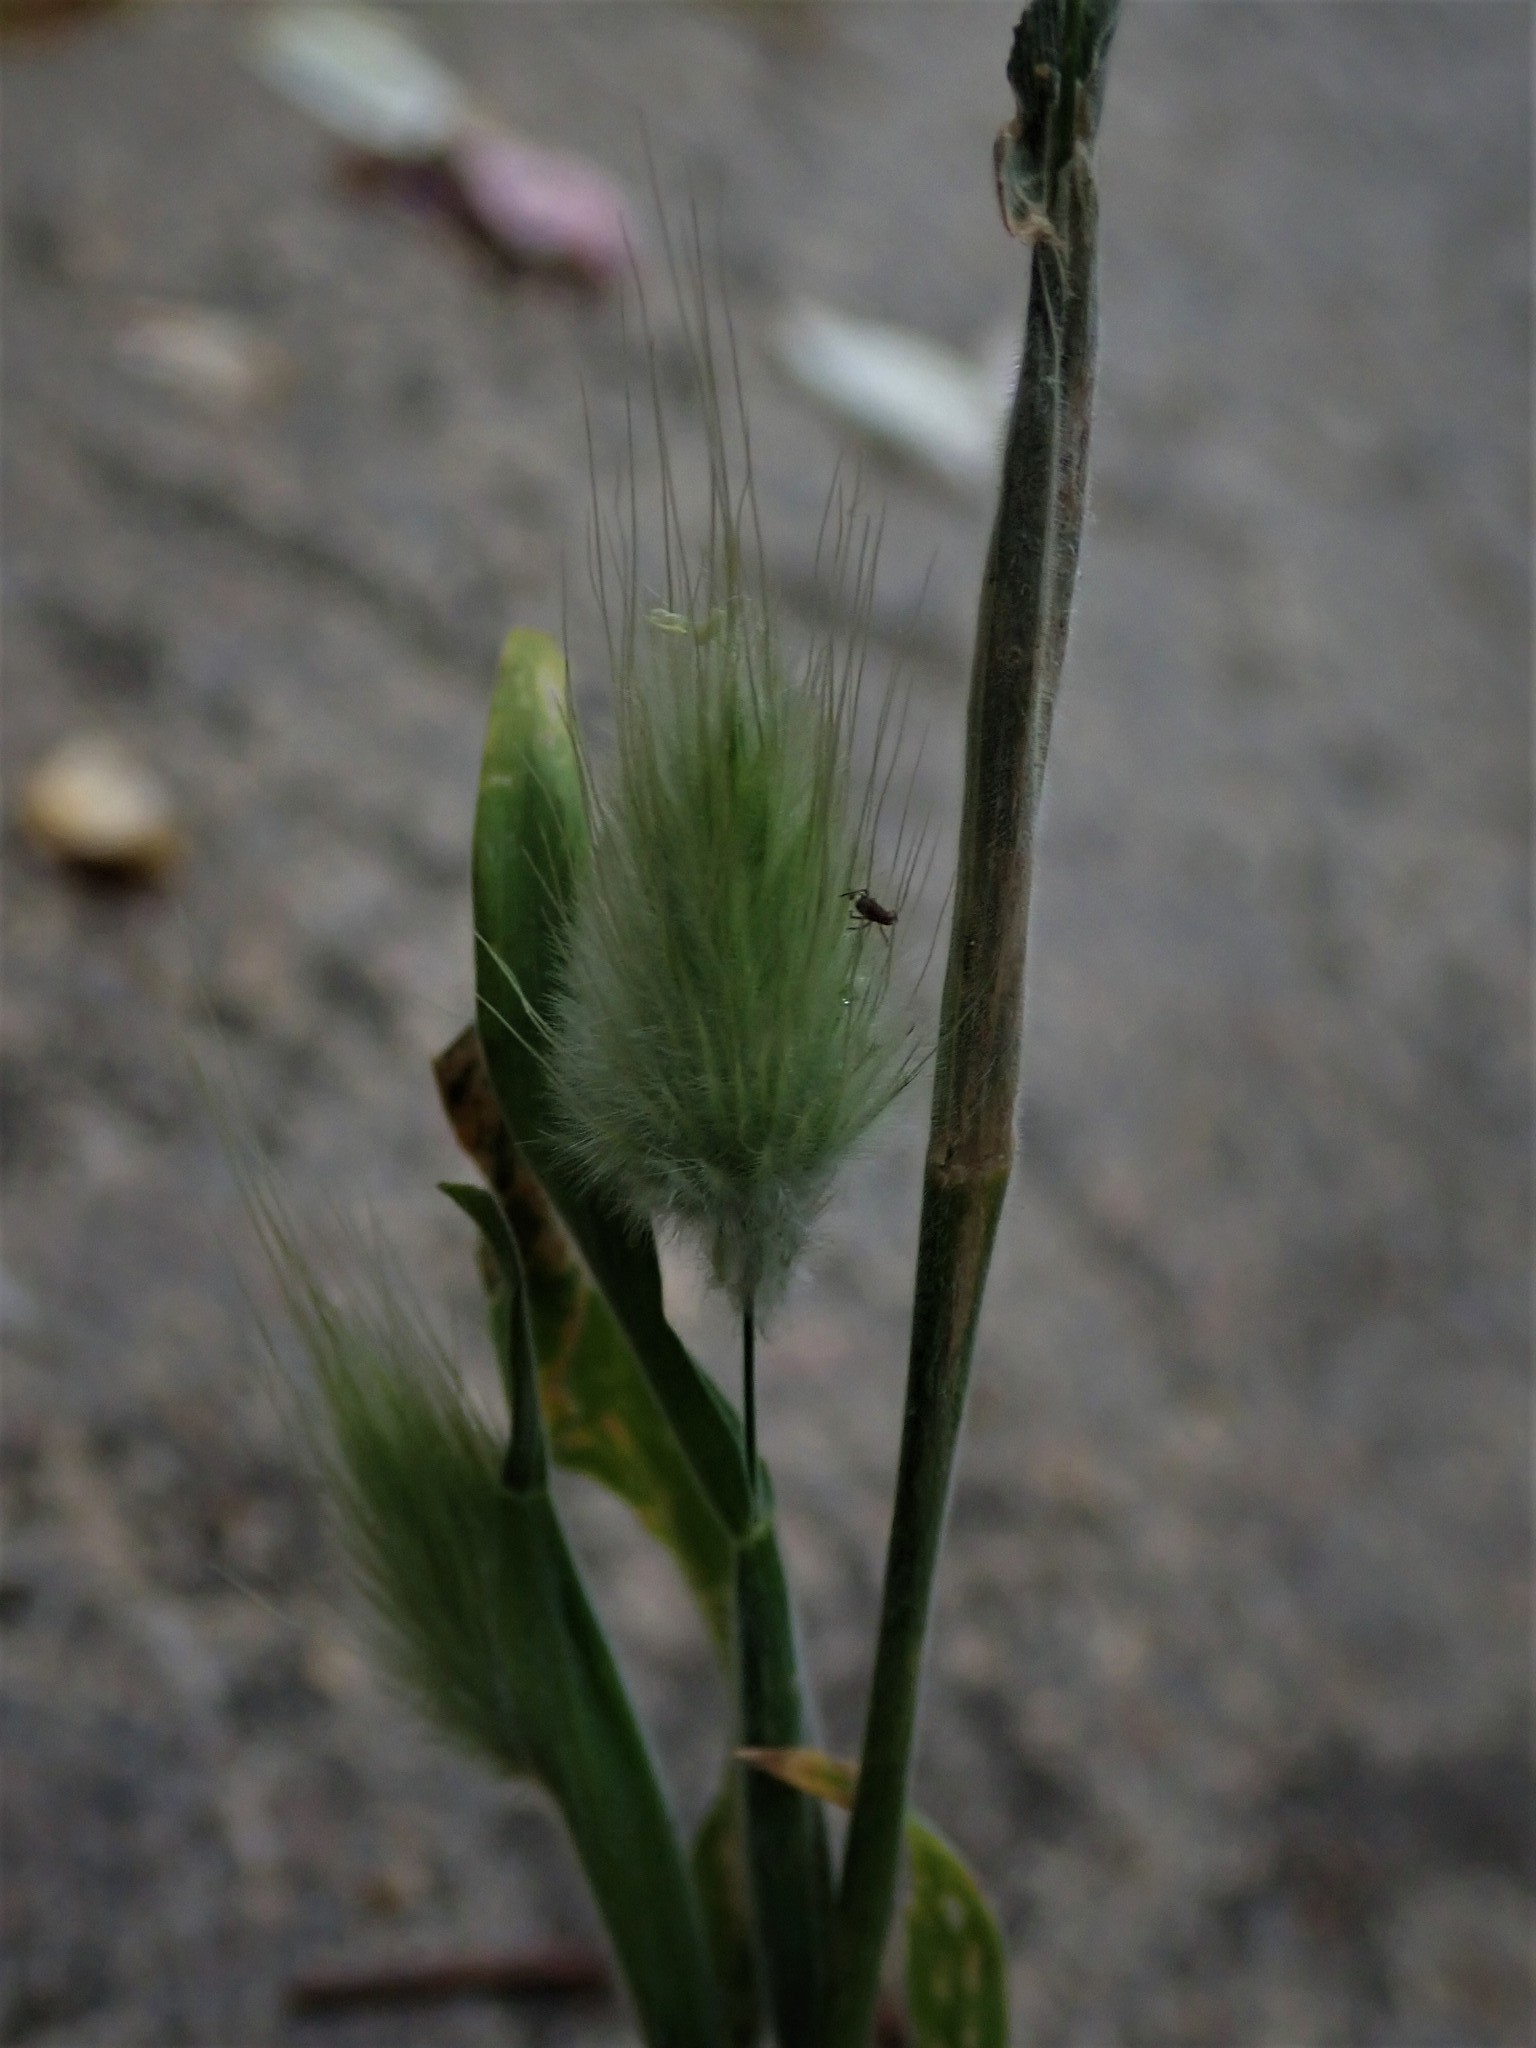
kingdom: Plantae
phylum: Tracheophyta
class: Liliopsida
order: Poales
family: Poaceae
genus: Lagurus
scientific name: Lagurus ovatus
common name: Hare's-tail
